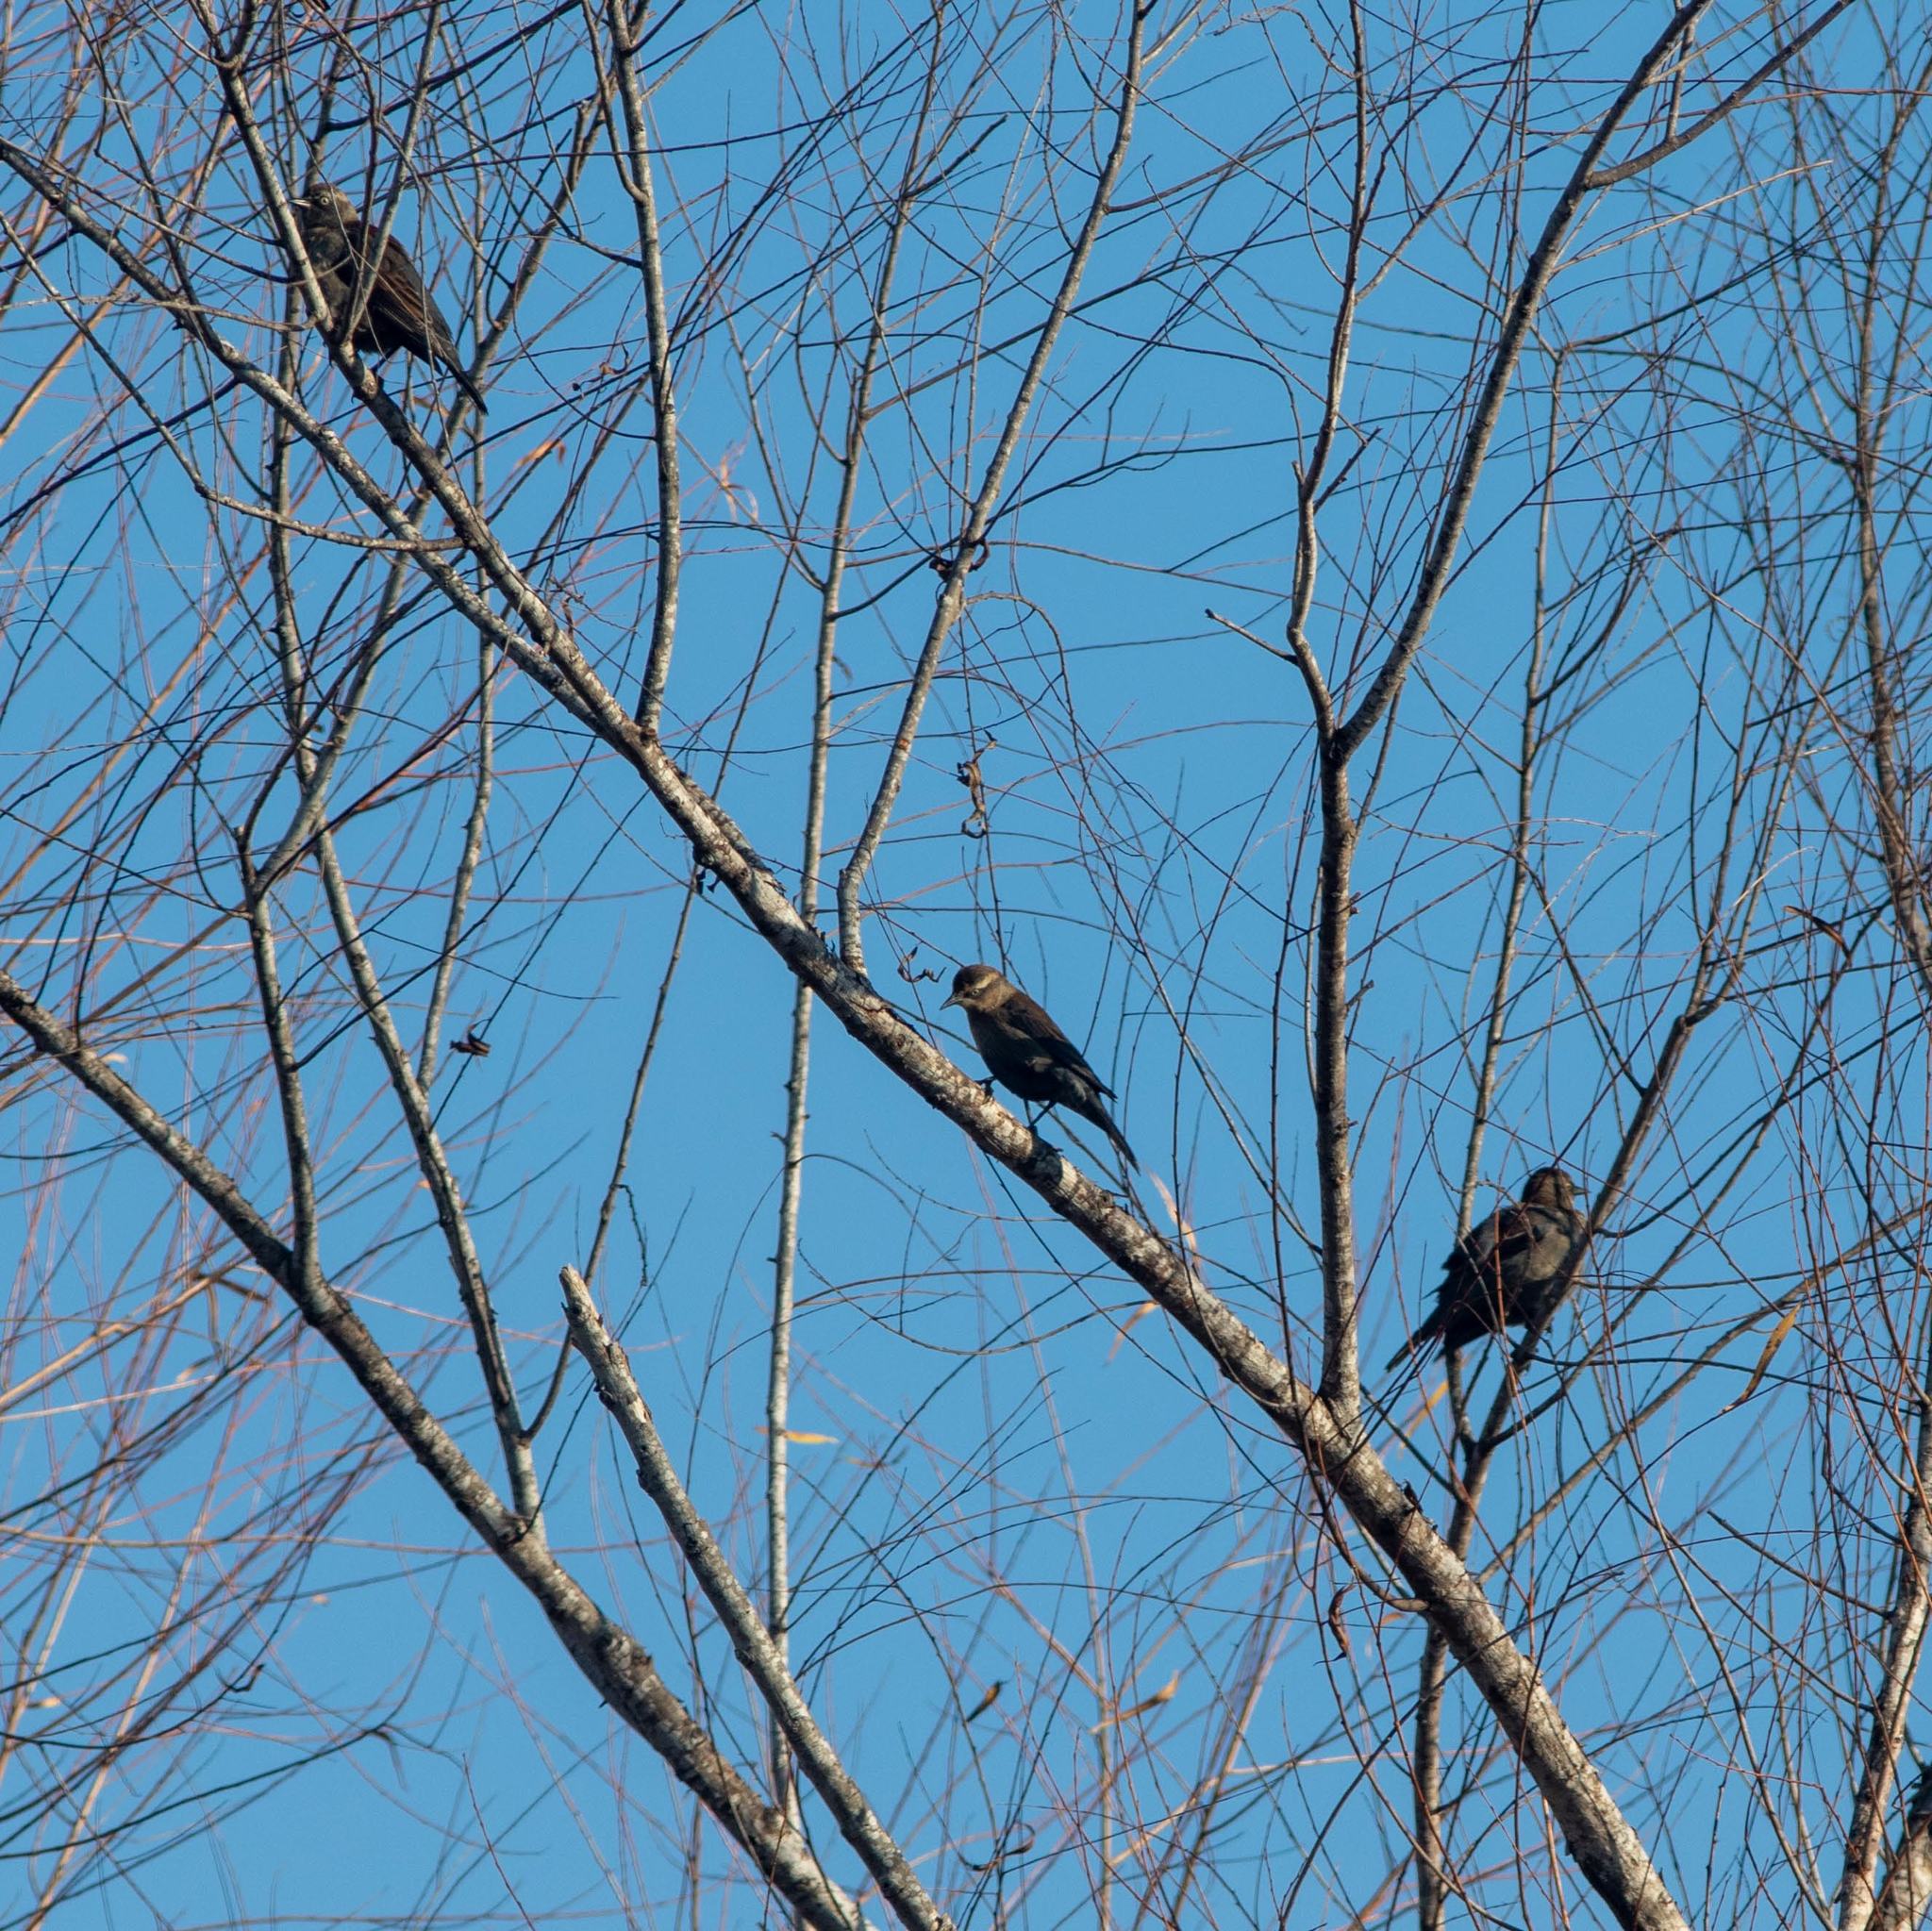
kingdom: Animalia
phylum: Chordata
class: Aves
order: Passeriformes
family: Icteridae
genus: Euphagus
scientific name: Euphagus carolinus
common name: Rusty blackbird
